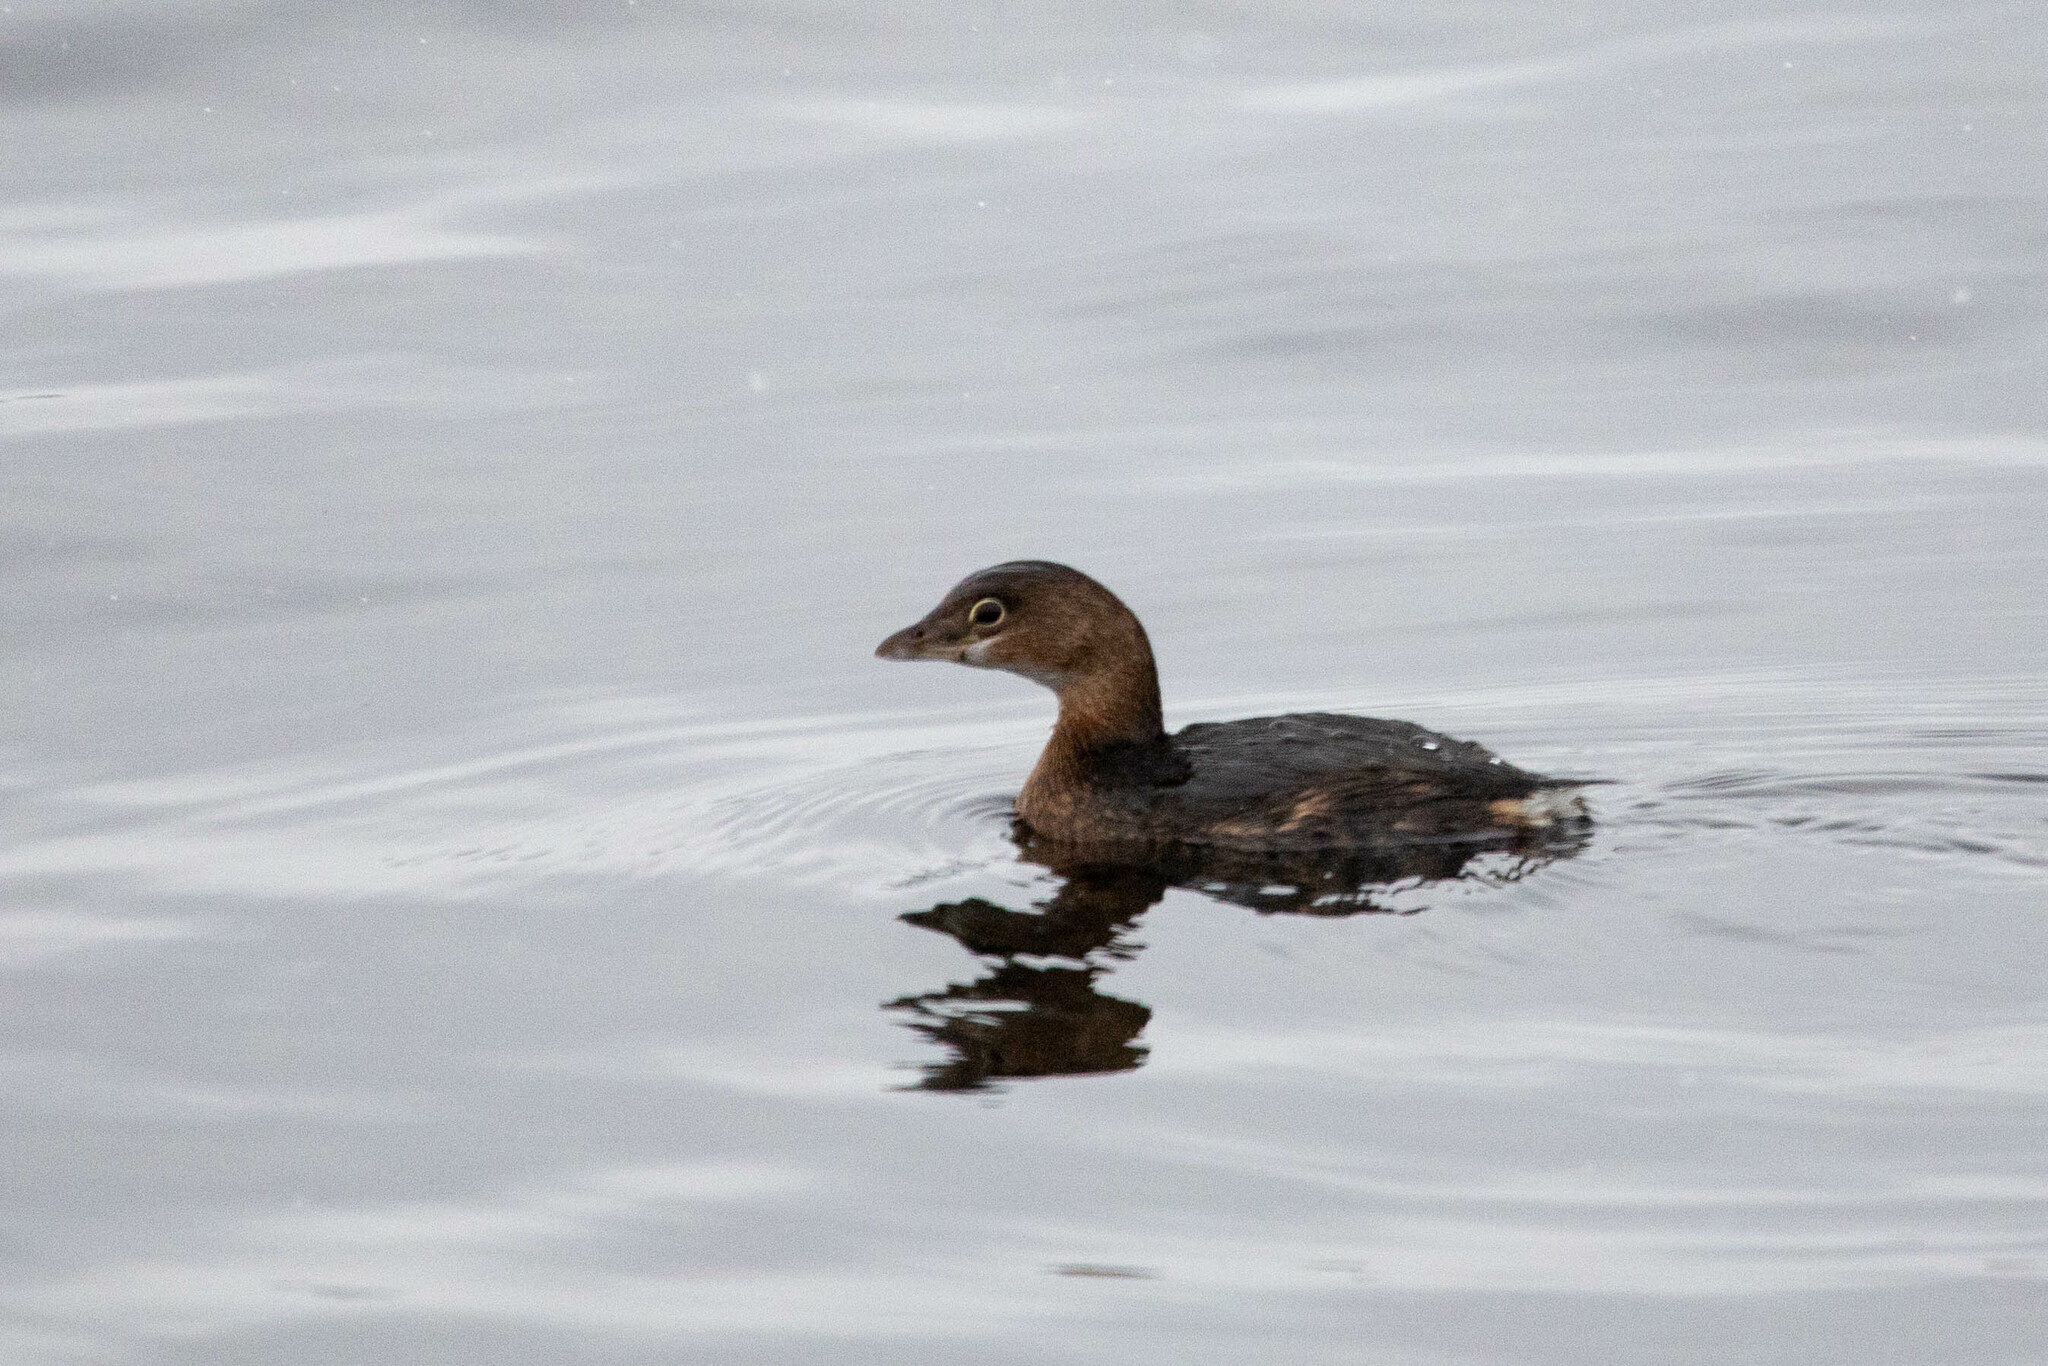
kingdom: Animalia
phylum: Chordata
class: Aves
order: Podicipediformes
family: Podicipedidae
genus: Podilymbus
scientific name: Podilymbus podiceps
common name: Pied-billed grebe
